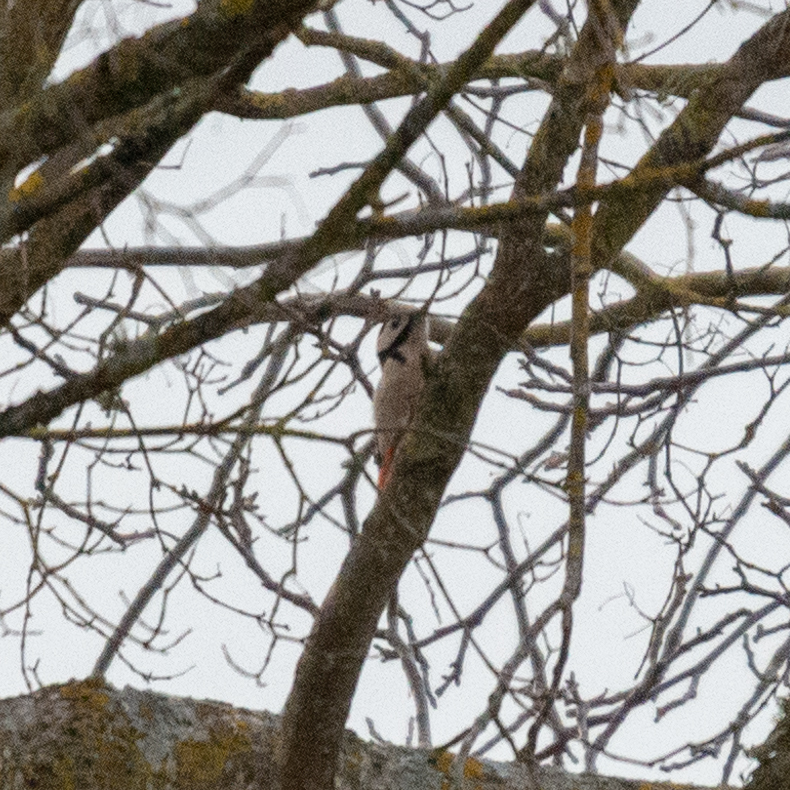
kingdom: Animalia
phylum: Chordata
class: Aves
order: Piciformes
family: Picidae
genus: Dendrocopos
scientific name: Dendrocopos major
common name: Great spotted woodpecker
